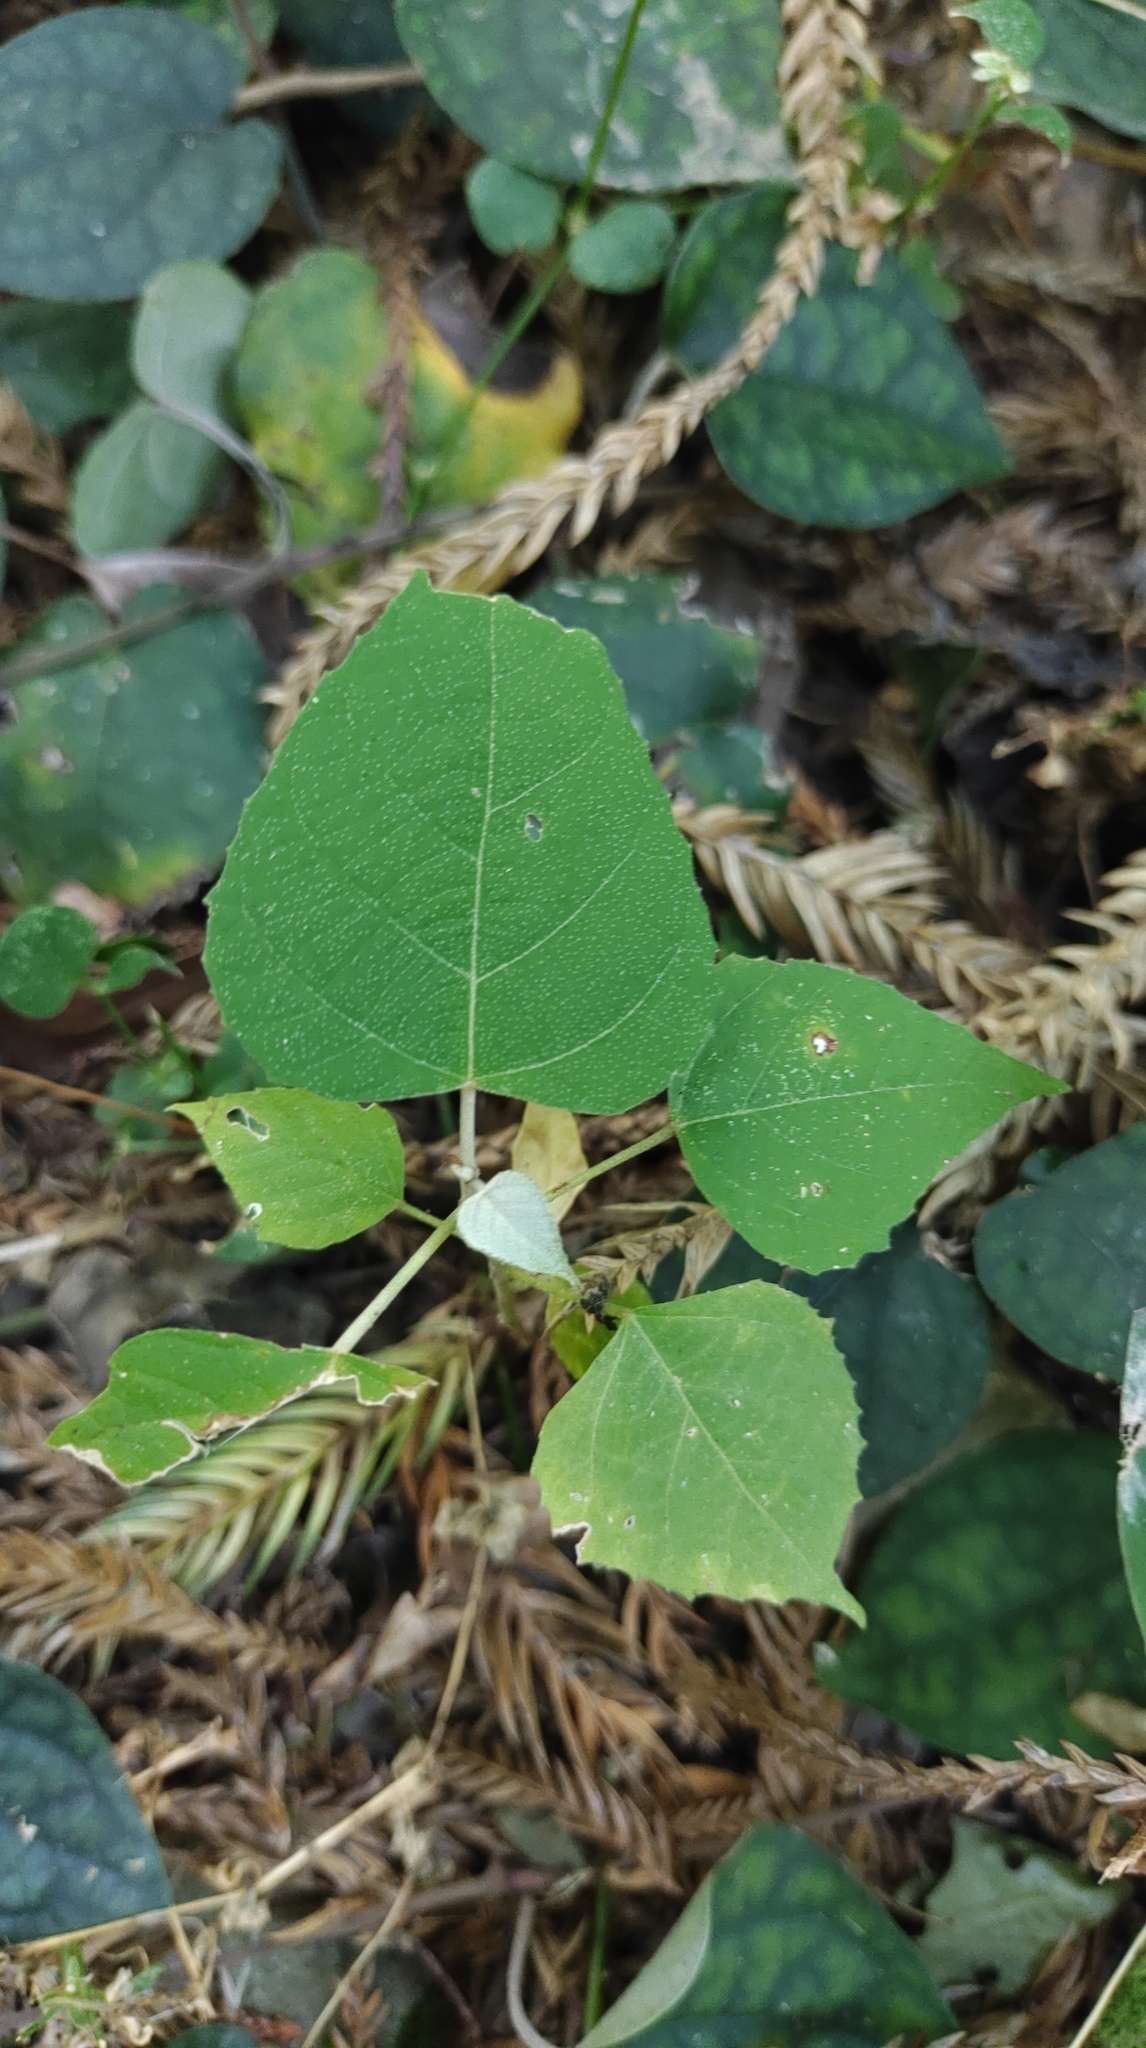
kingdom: Plantae
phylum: Tracheophyta
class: Magnoliopsida
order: Malpighiales
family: Euphorbiaceae
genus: Mallotus
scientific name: Mallotus paniculatus
